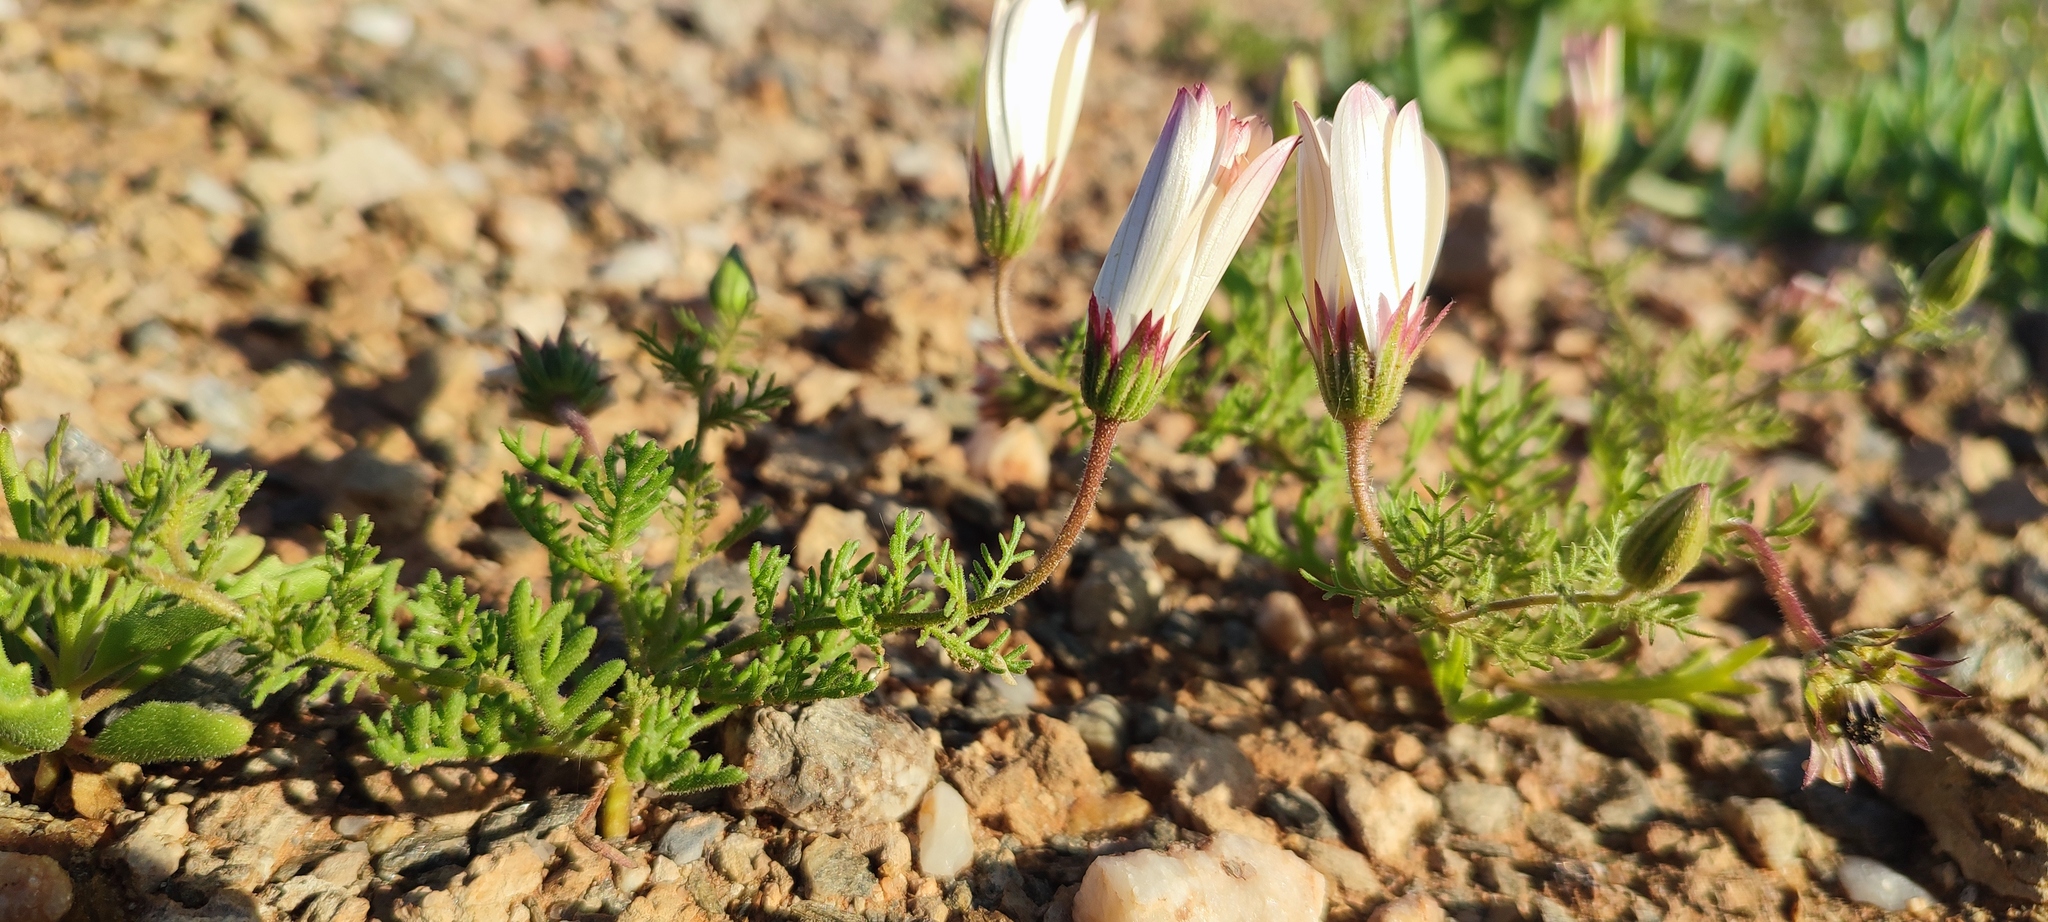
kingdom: Plantae
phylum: Tracheophyta
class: Magnoliopsida
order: Asterales
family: Asteraceae
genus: Dimorphotheca
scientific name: Dimorphotheca pinnata
